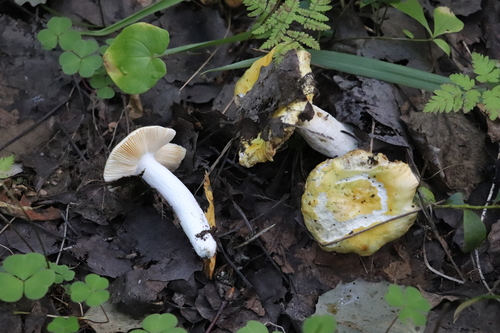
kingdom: Fungi
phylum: Basidiomycota
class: Agaricomycetes
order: Russulales
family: Russulaceae
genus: Russula
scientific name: Russula risigallina
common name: Golden brittlegill
